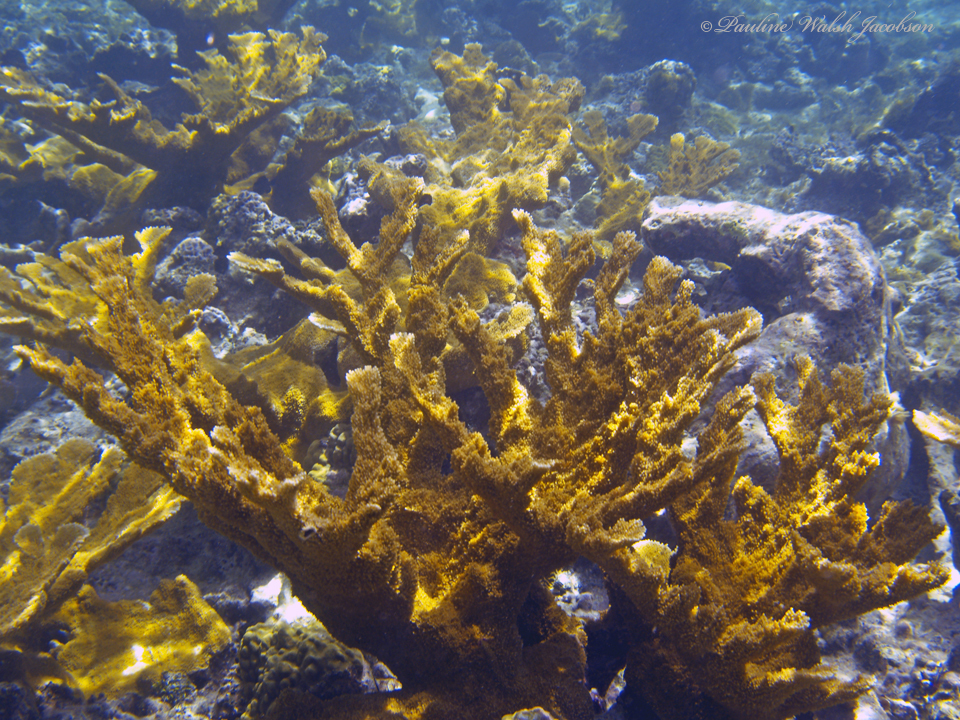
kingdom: Animalia
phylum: Cnidaria
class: Anthozoa
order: Scleractinia
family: Acroporidae
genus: Acropora
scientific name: Acropora palmata
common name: Elkhorn coral
